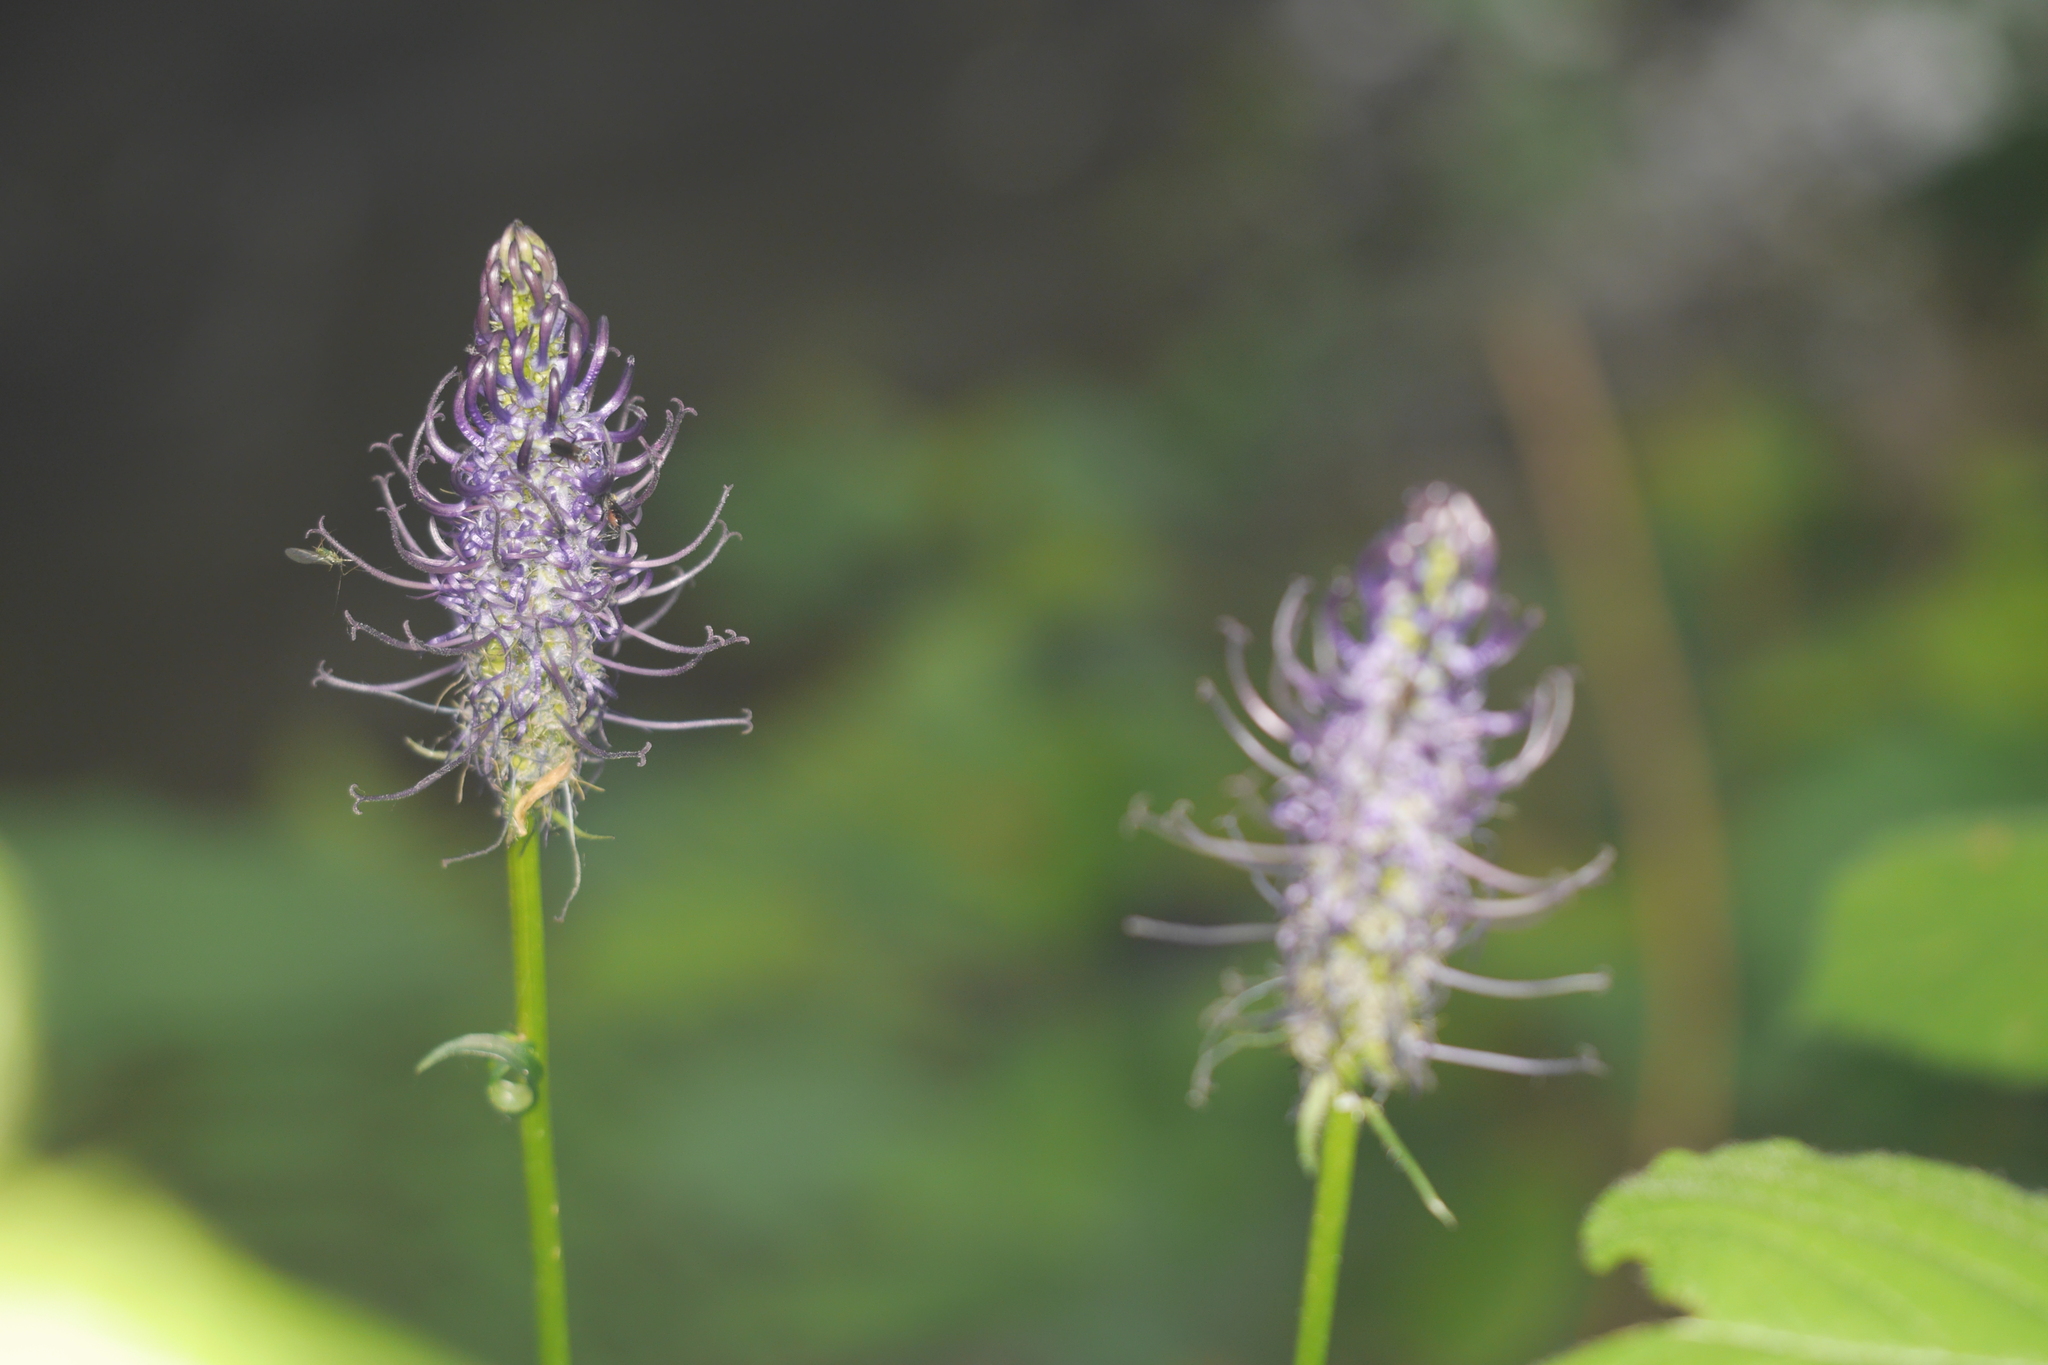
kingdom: Plantae
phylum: Tracheophyta
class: Magnoliopsida
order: Asterales
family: Campanulaceae
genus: Phyteuma
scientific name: Phyteuma nigrum
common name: Black rampion
